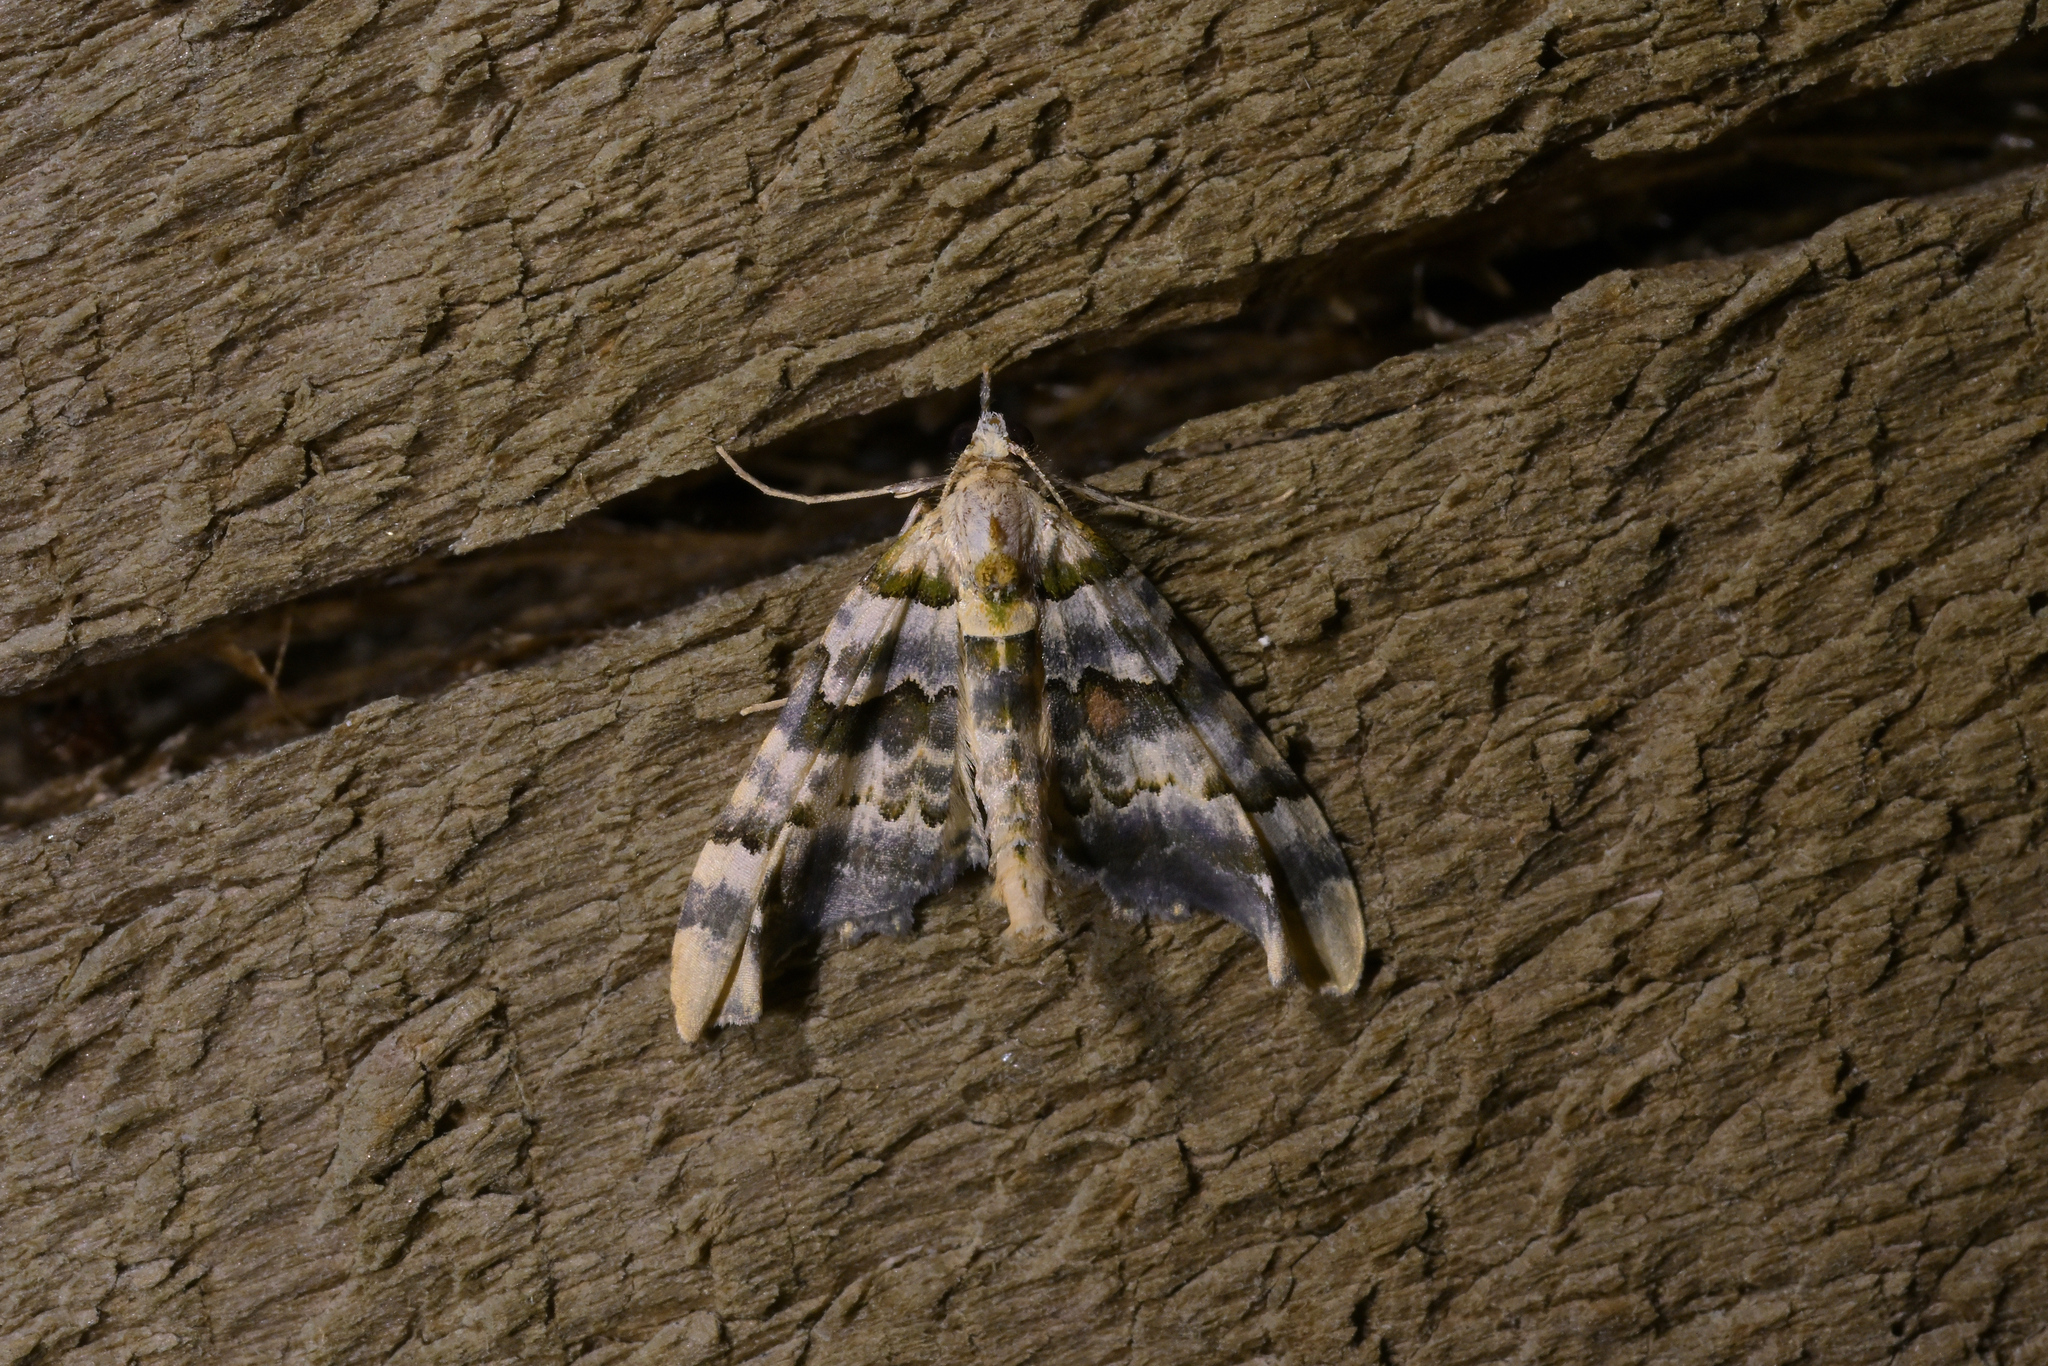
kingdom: Animalia
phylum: Arthropoda
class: Insecta
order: Lepidoptera
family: Geometridae
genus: Elvia
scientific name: Elvia glaucata
